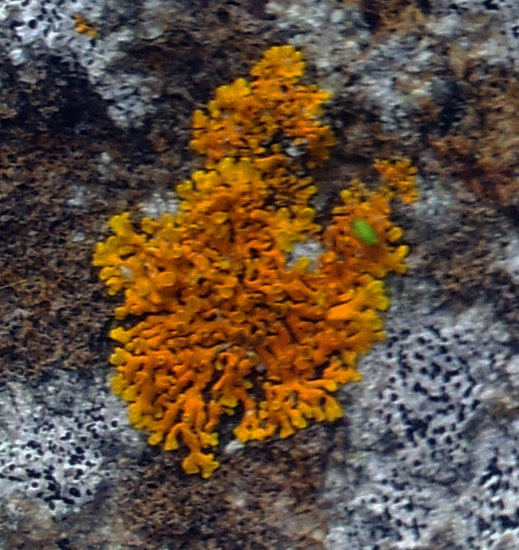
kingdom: Fungi
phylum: Ascomycota
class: Lecanoromycetes
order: Teloschistales
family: Teloschistaceae
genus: Dufourea
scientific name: Dufourea ligulata
